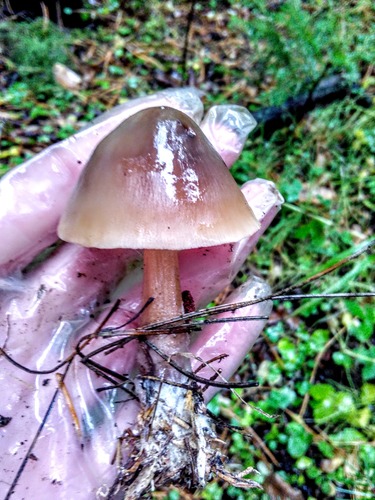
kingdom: Fungi
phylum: Basidiomycota
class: Agaricomycetes
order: Agaricales
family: Omphalotaceae
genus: Rhodocollybia
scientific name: Rhodocollybia butyracea
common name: Butter cap
